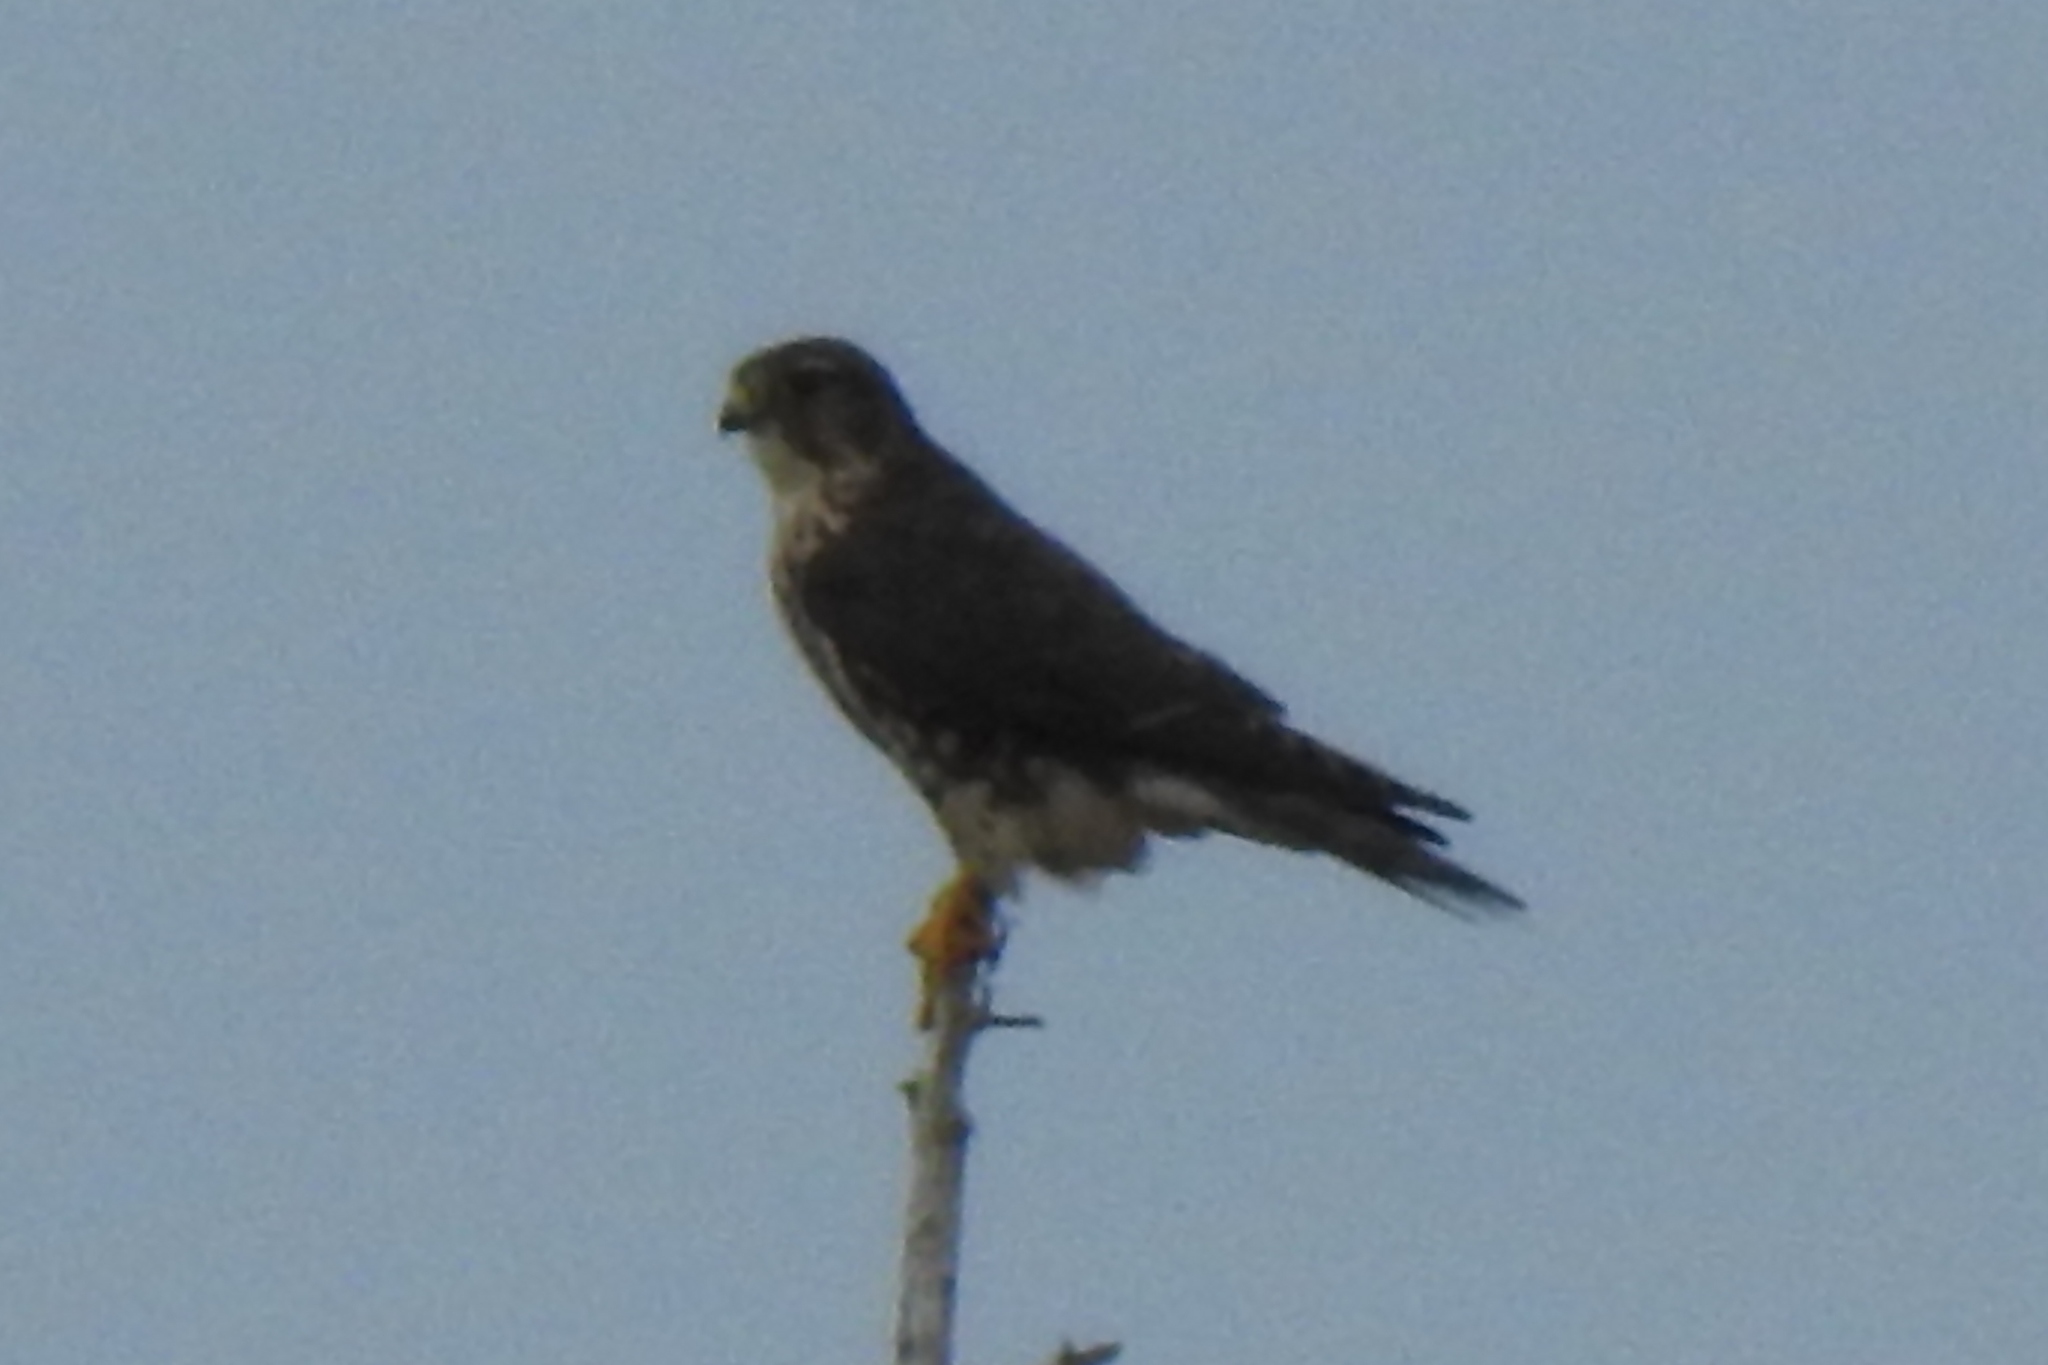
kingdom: Animalia
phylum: Chordata
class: Aves
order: Falconiformes
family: Falconidae
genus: Falco
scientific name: Falco columbarius
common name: Merlin
